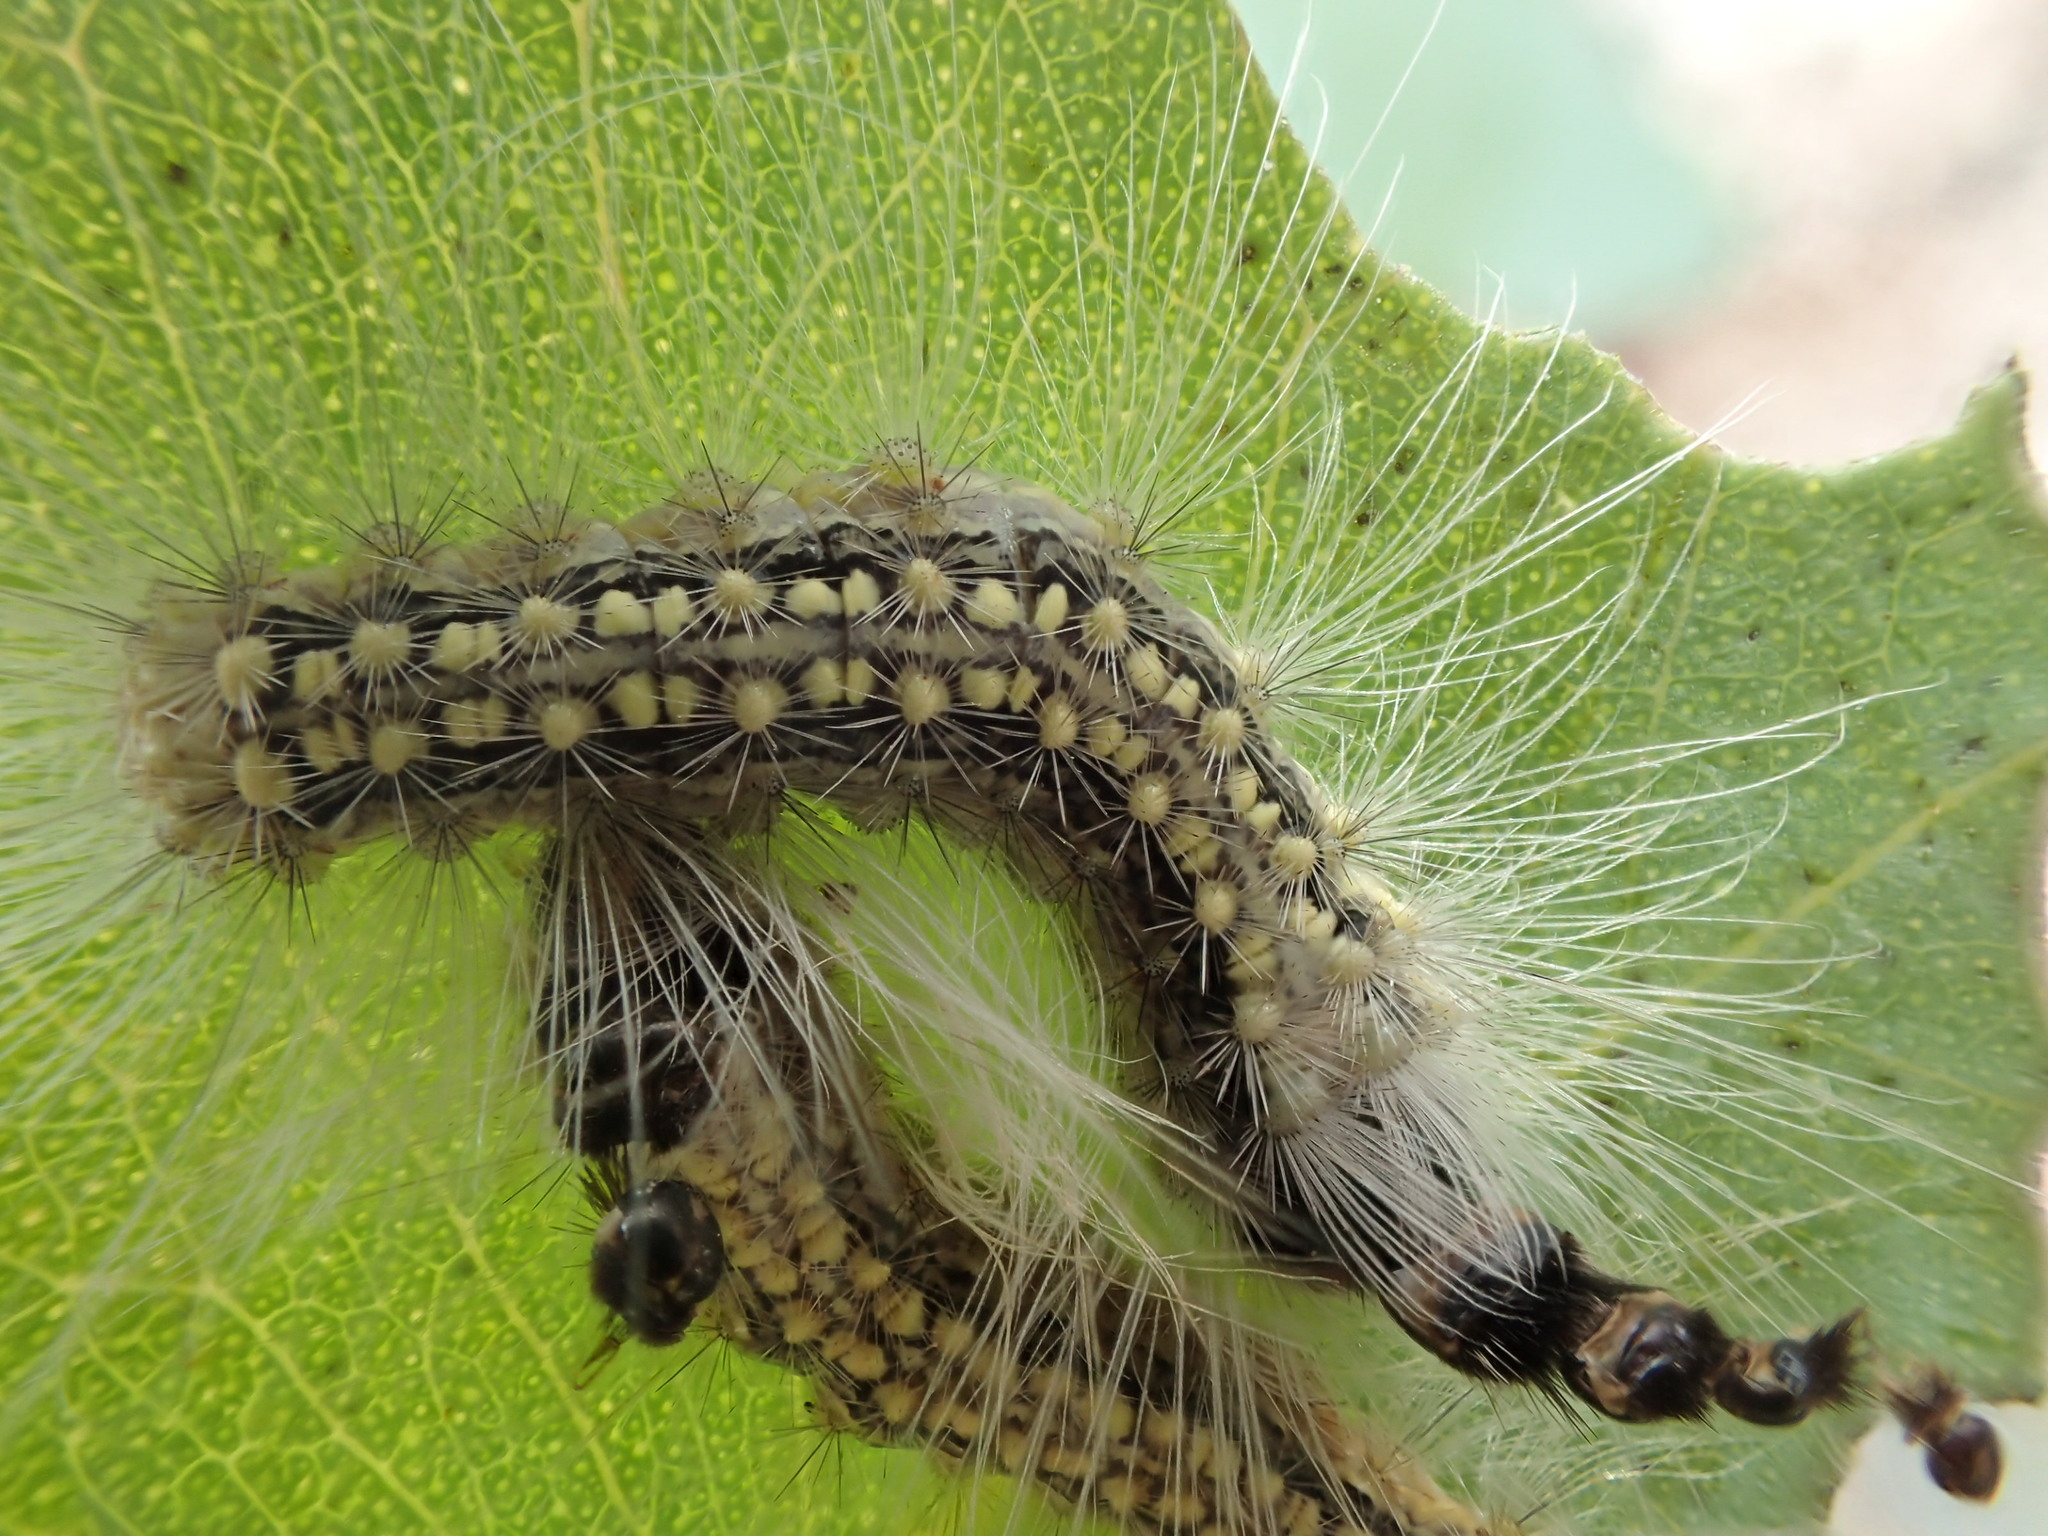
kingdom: Animalia
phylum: Arthropoda
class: Insecta
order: Lepidoptera
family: Nolidae
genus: Uraba
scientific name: Uraba lugens
